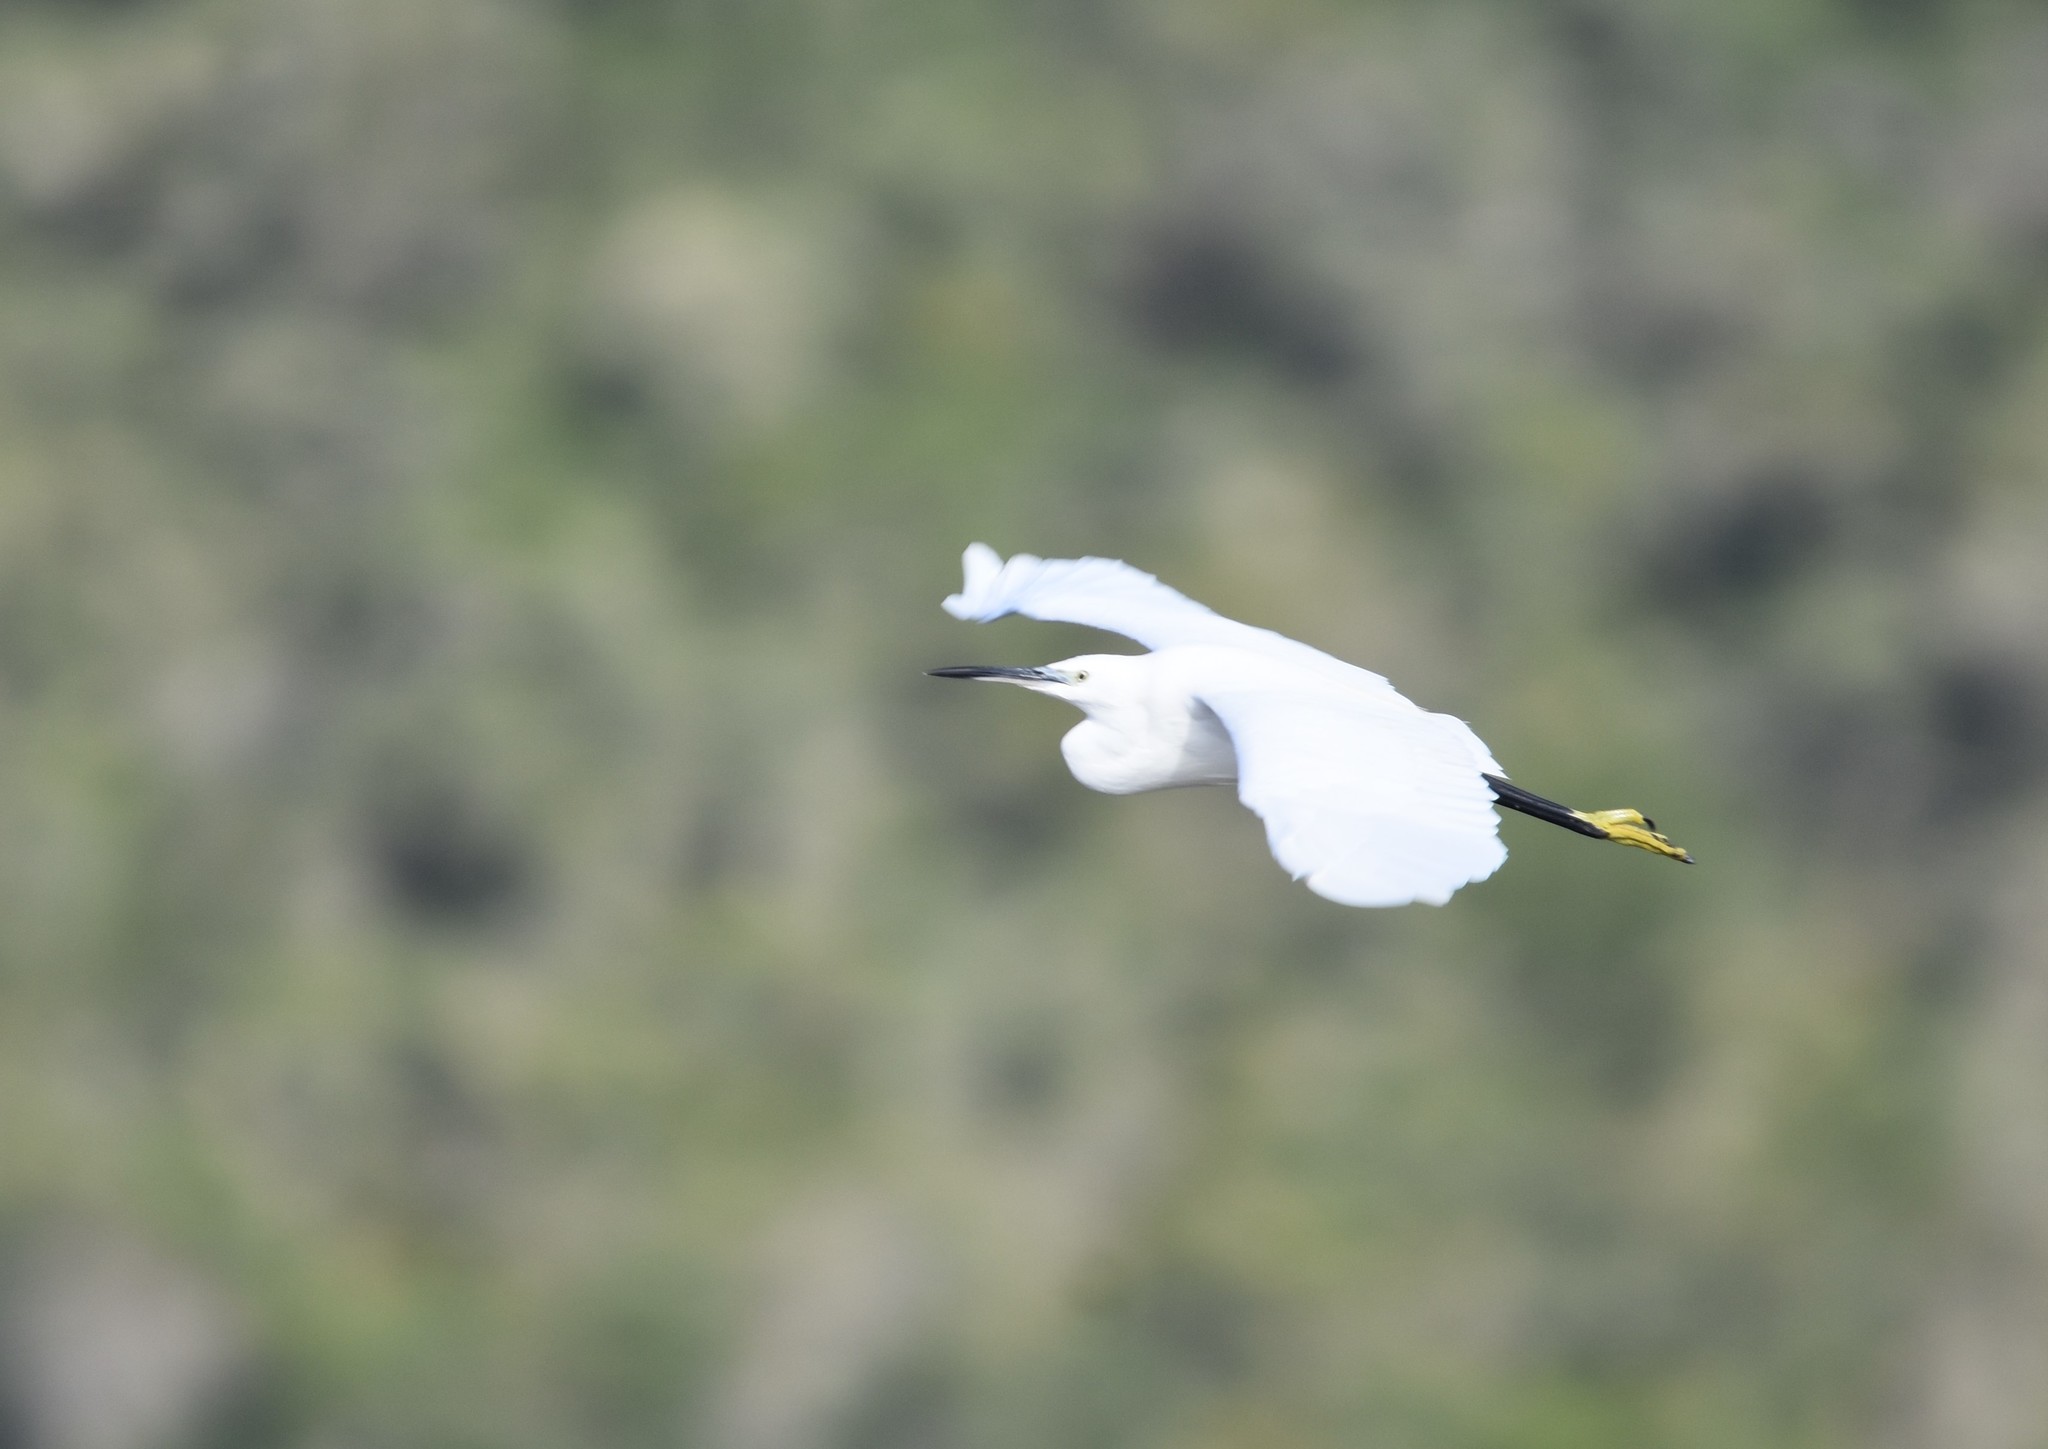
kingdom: Animalia
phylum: Chordata
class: Aves
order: Pelecaniformes
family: Ardeidae
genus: Egretta
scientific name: Egretta garzetta
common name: Little egret
